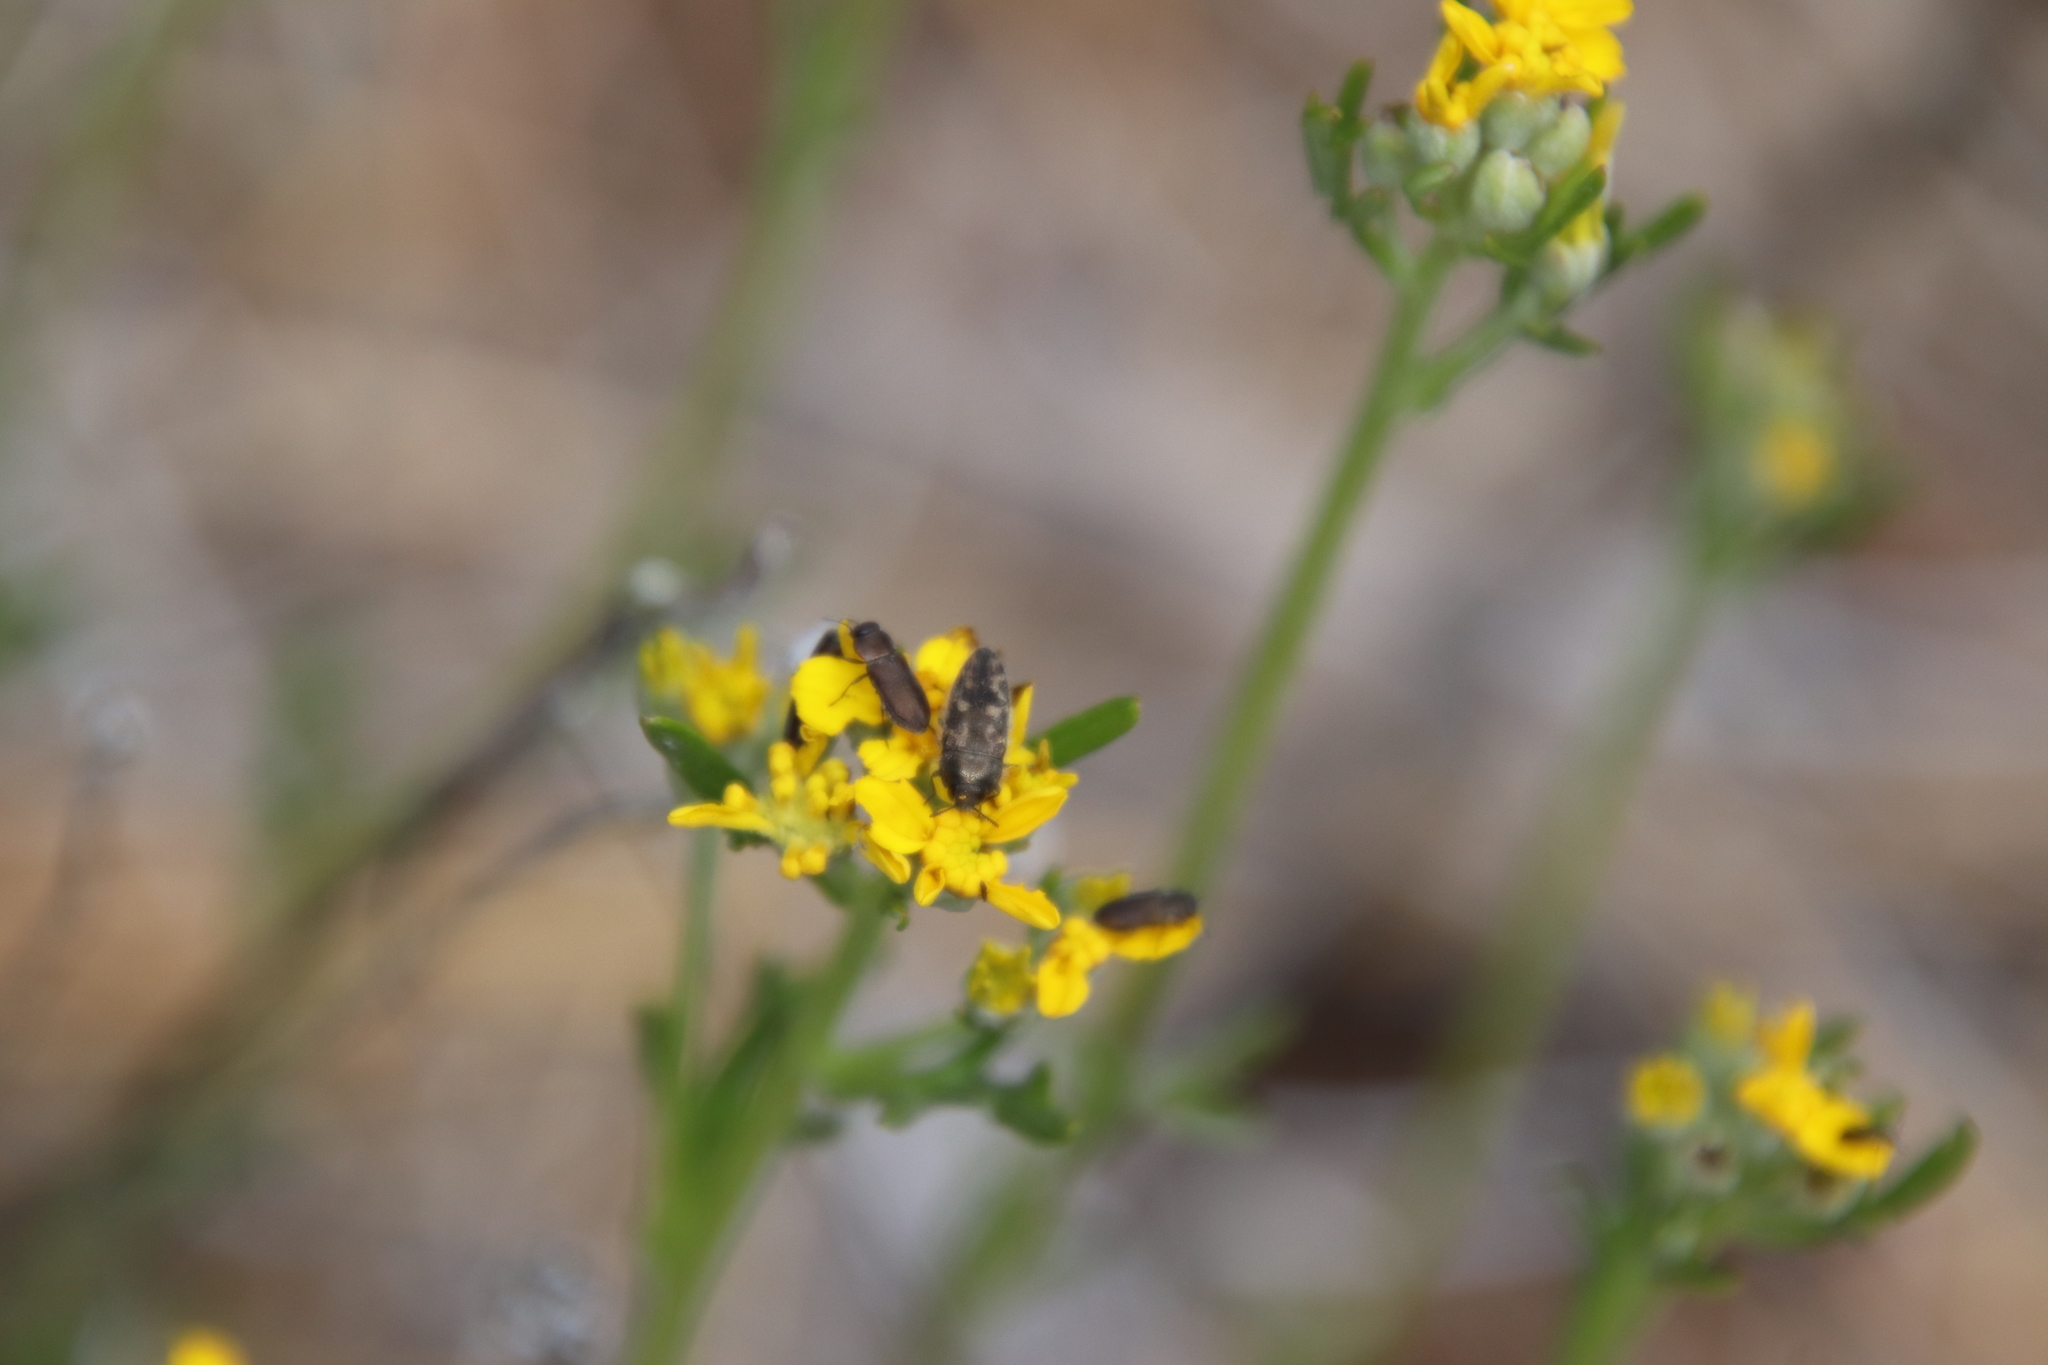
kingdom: Plantae
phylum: Tracheophyta
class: Magnoliopsida
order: Asterales
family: Asteraceae
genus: Eriophyllum
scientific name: Eriophyllum confertiflorum
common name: Golden-yarrow
